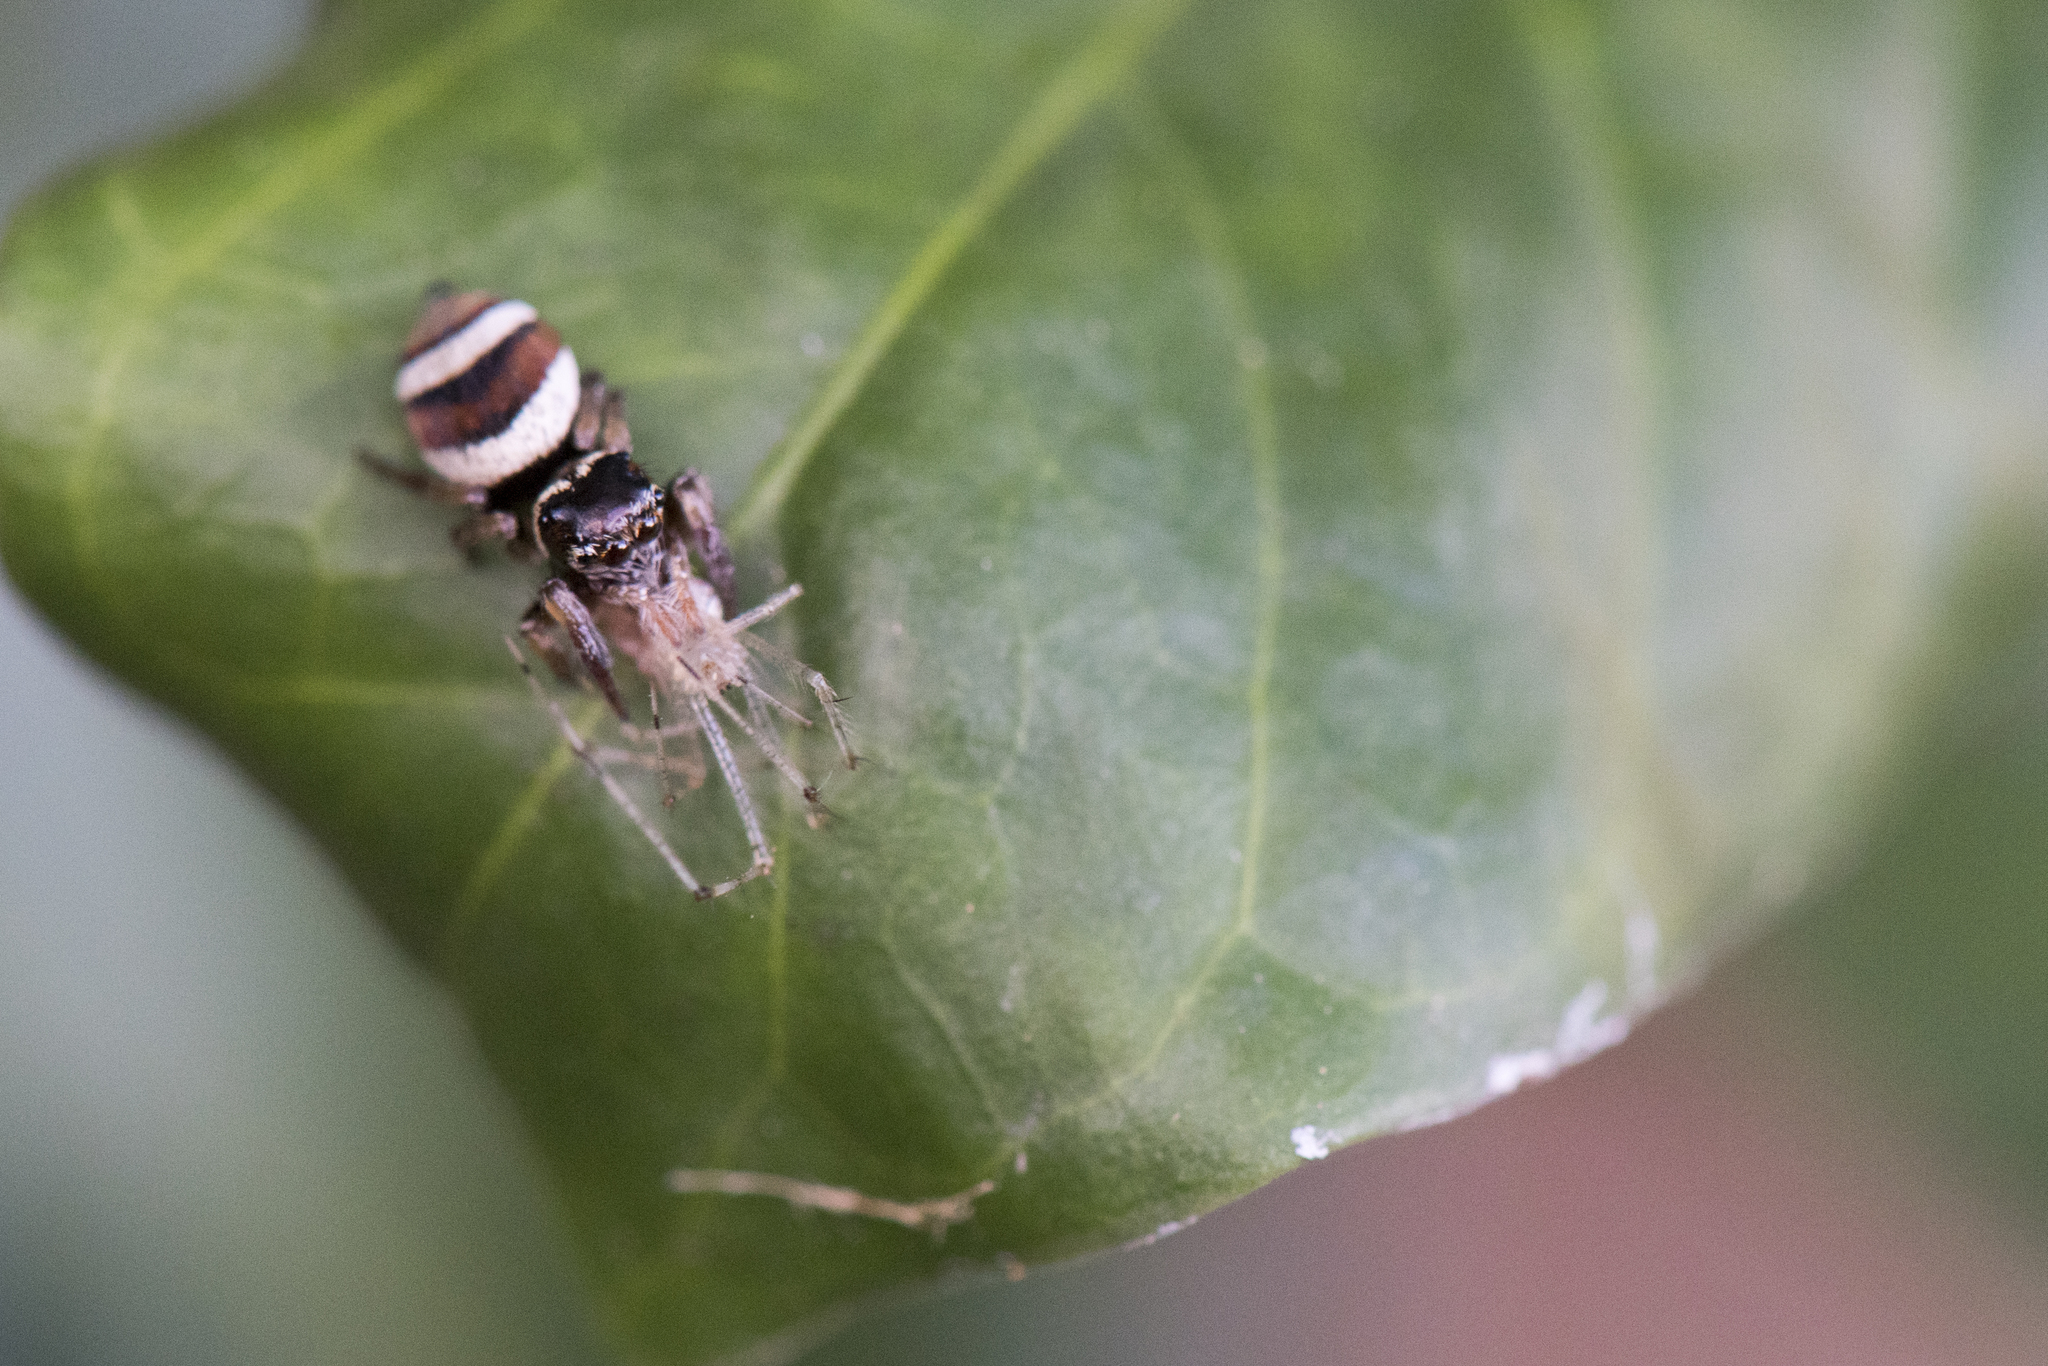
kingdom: Animalia
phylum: Arthropoda
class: Arachnida
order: Araneae
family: Salticidae
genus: Ptocasius
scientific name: Ptocasius strupifer
